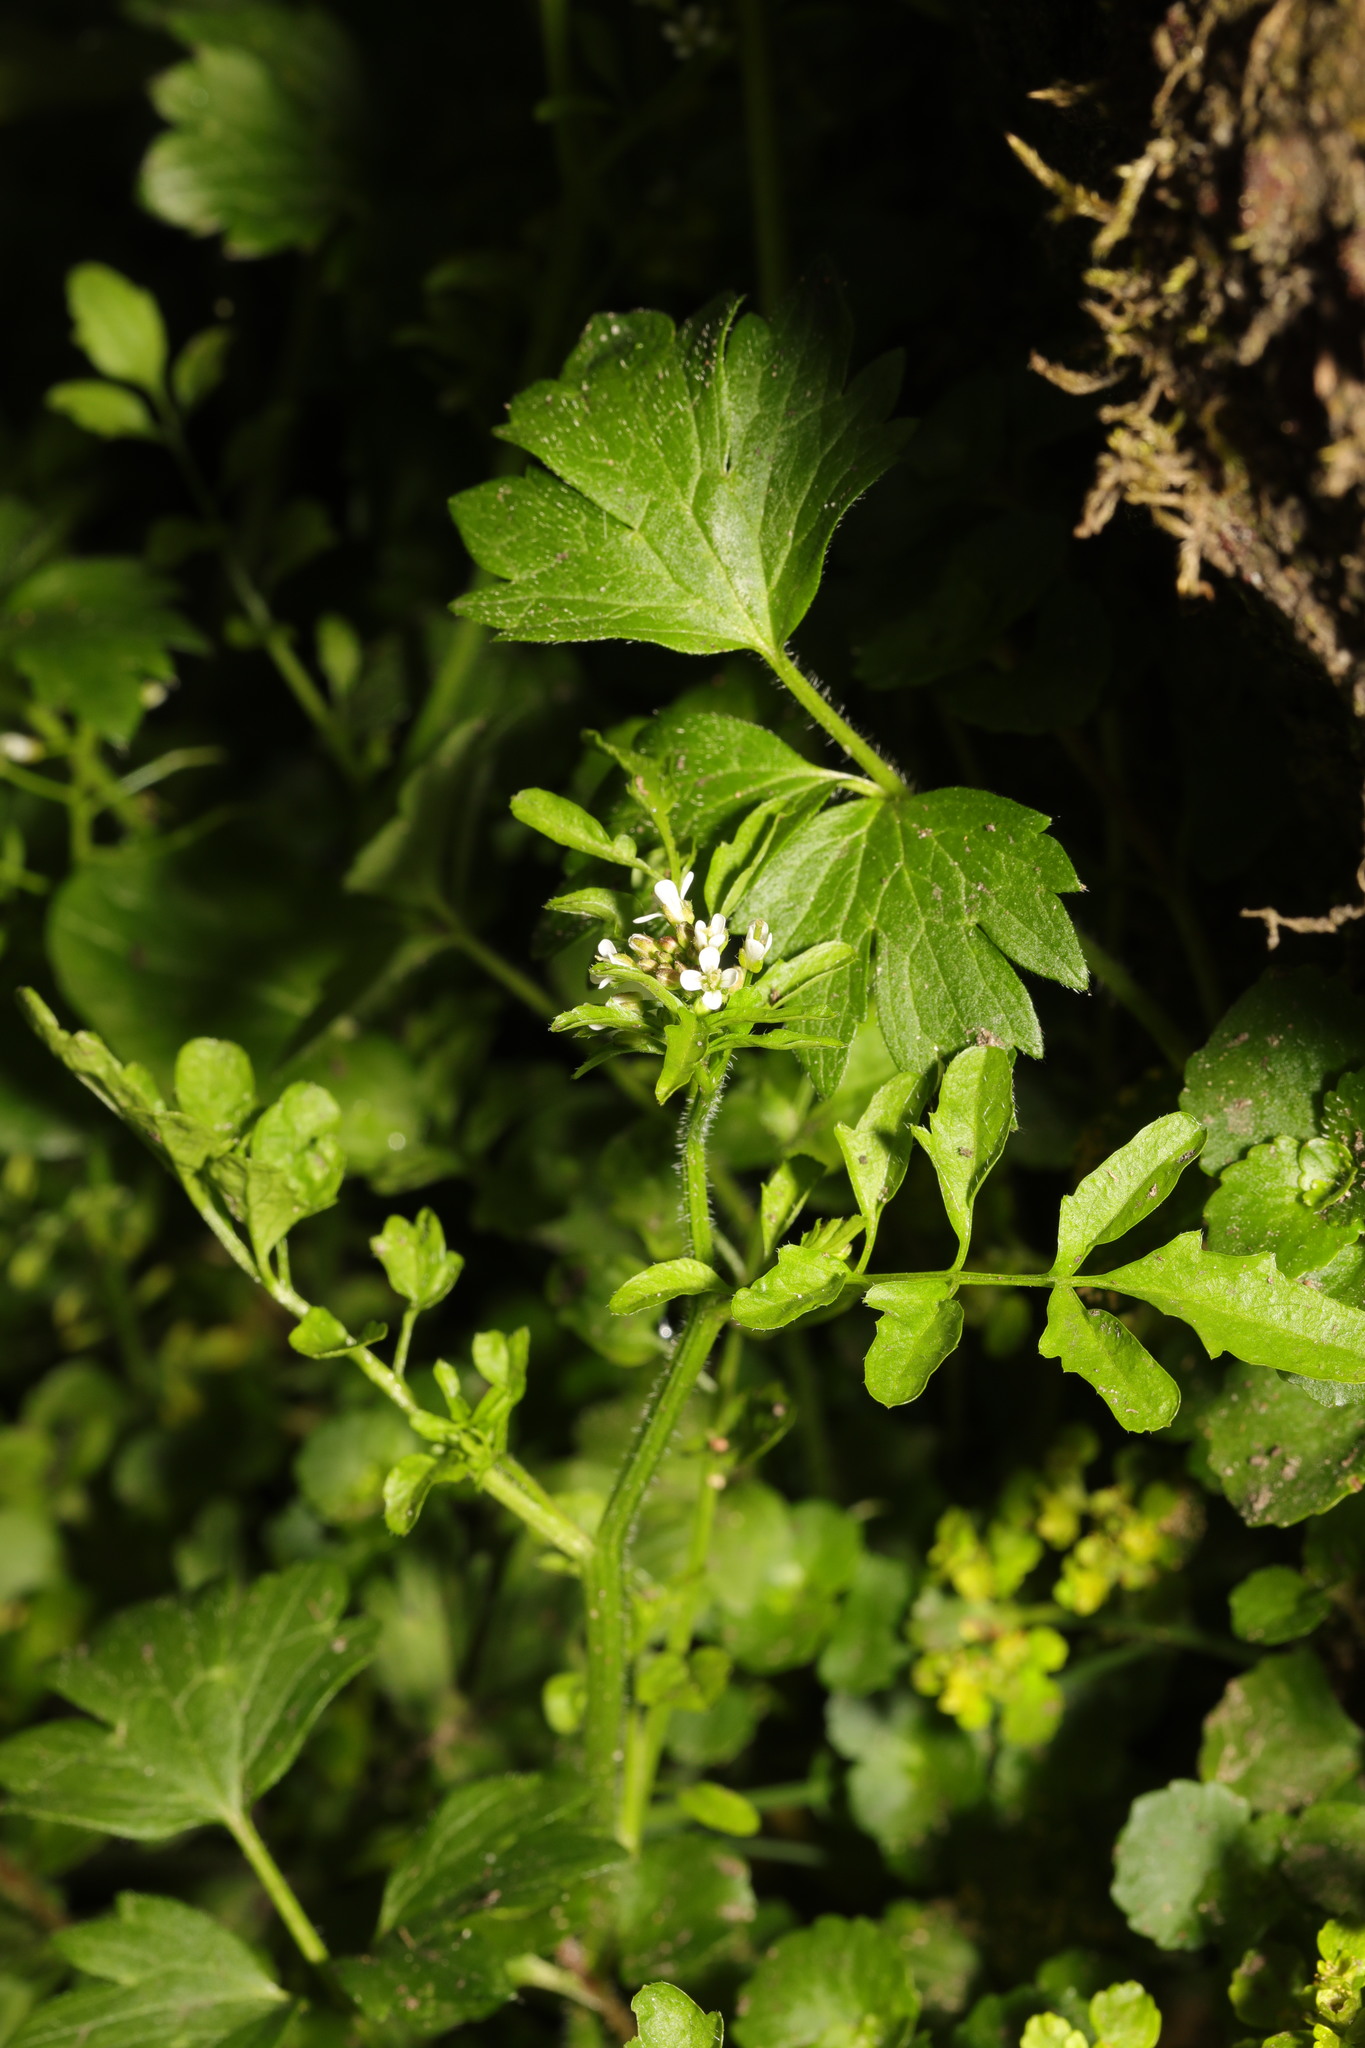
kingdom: Plantae
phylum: Tracheophyta
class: Magnoliopsida
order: Brassicales
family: Brassicaceae
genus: Cardamine
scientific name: Cardamine flexuosa
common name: Woodland bittercress
